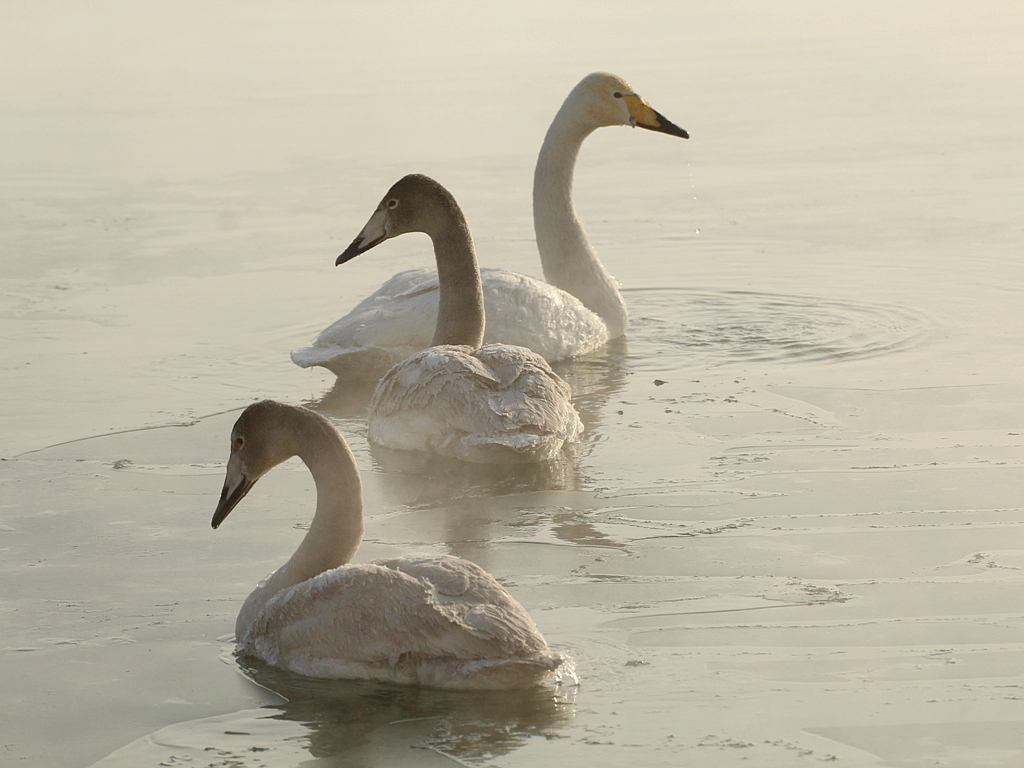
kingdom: Animalia
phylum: Chordata
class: Aves
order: Anseriformes
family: Anatidae
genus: Cygnus
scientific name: Cygnus cygnus
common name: Whooper swan
